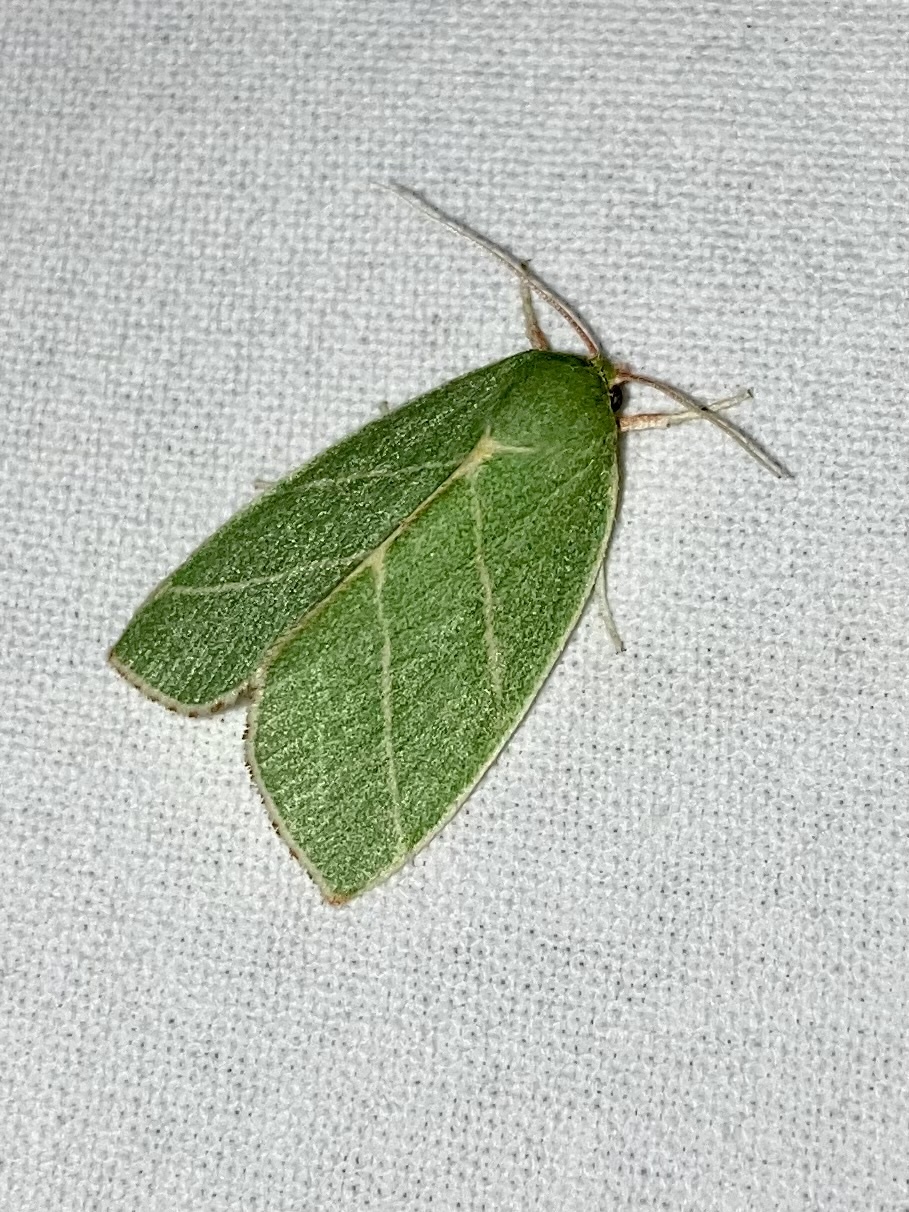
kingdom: Animalia
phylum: Arthropoda
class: Insecta
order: Lepidoptera
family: Nolidae
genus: Bena
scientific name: Bena bicolorana
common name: Scarce silver-lines
